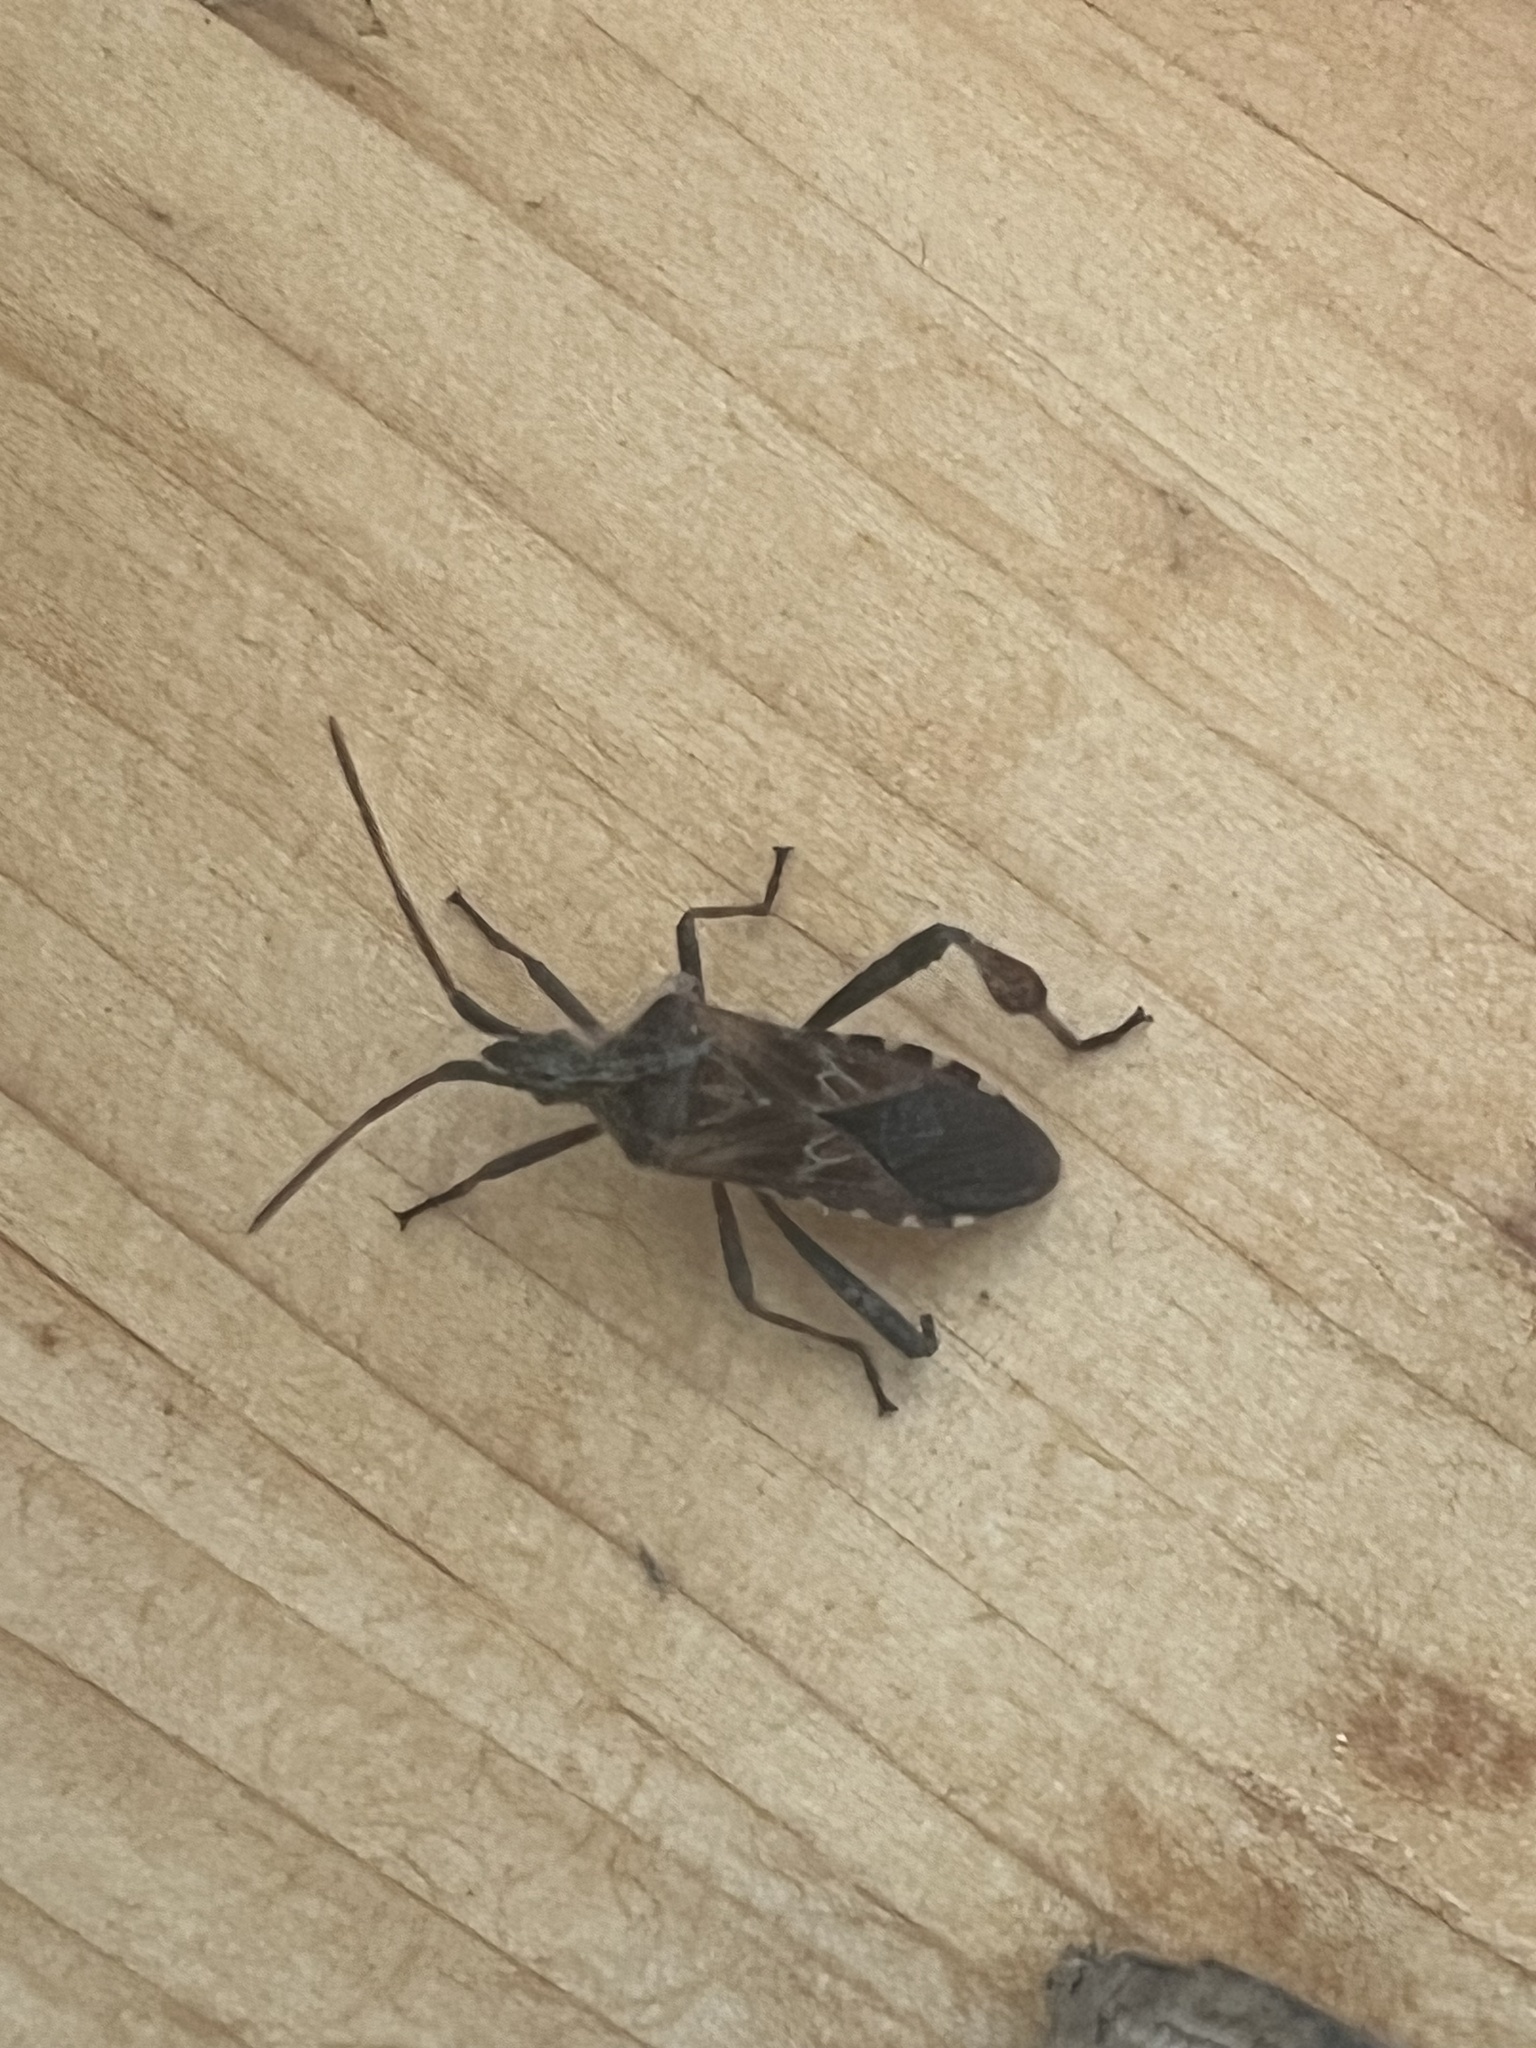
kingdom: Animalia
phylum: Arthropoda
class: Insecta
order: Hemiptera
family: Coreidae
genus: Leptoglossus
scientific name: Leptoglossus occidentalis
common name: Western conifer-seed bug
